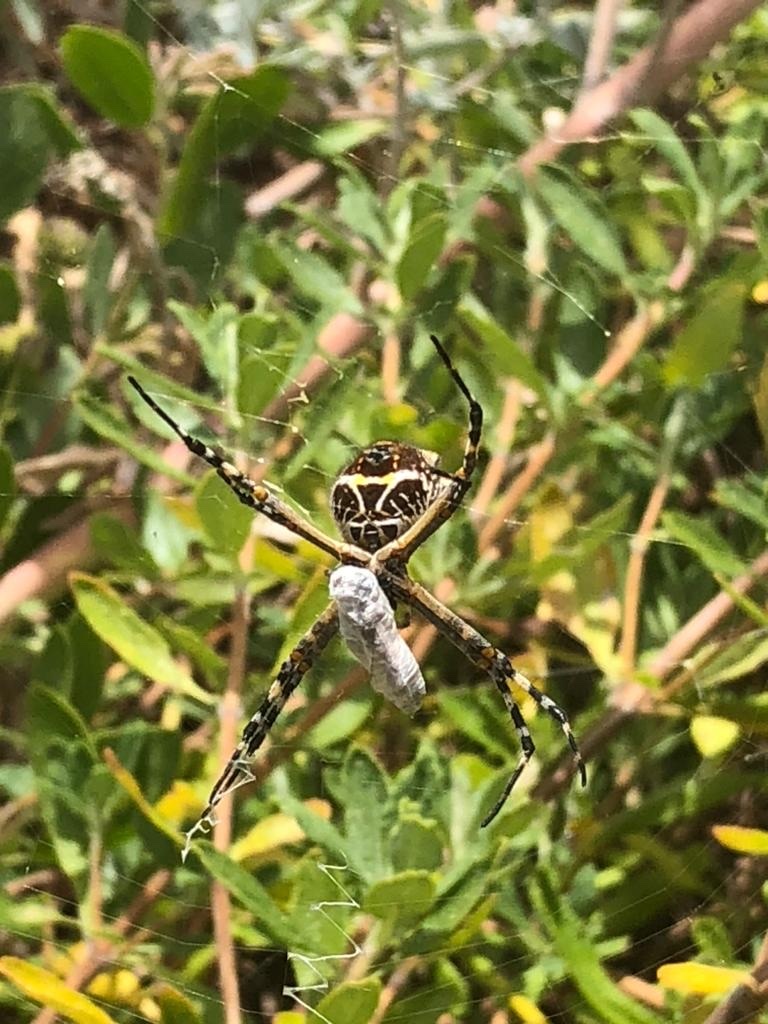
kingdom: Animalia
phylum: Arthropoda
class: Arachnida
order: Araneae
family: Araneidae
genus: Argiope
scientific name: Argiope argentata
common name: Orb weavers
